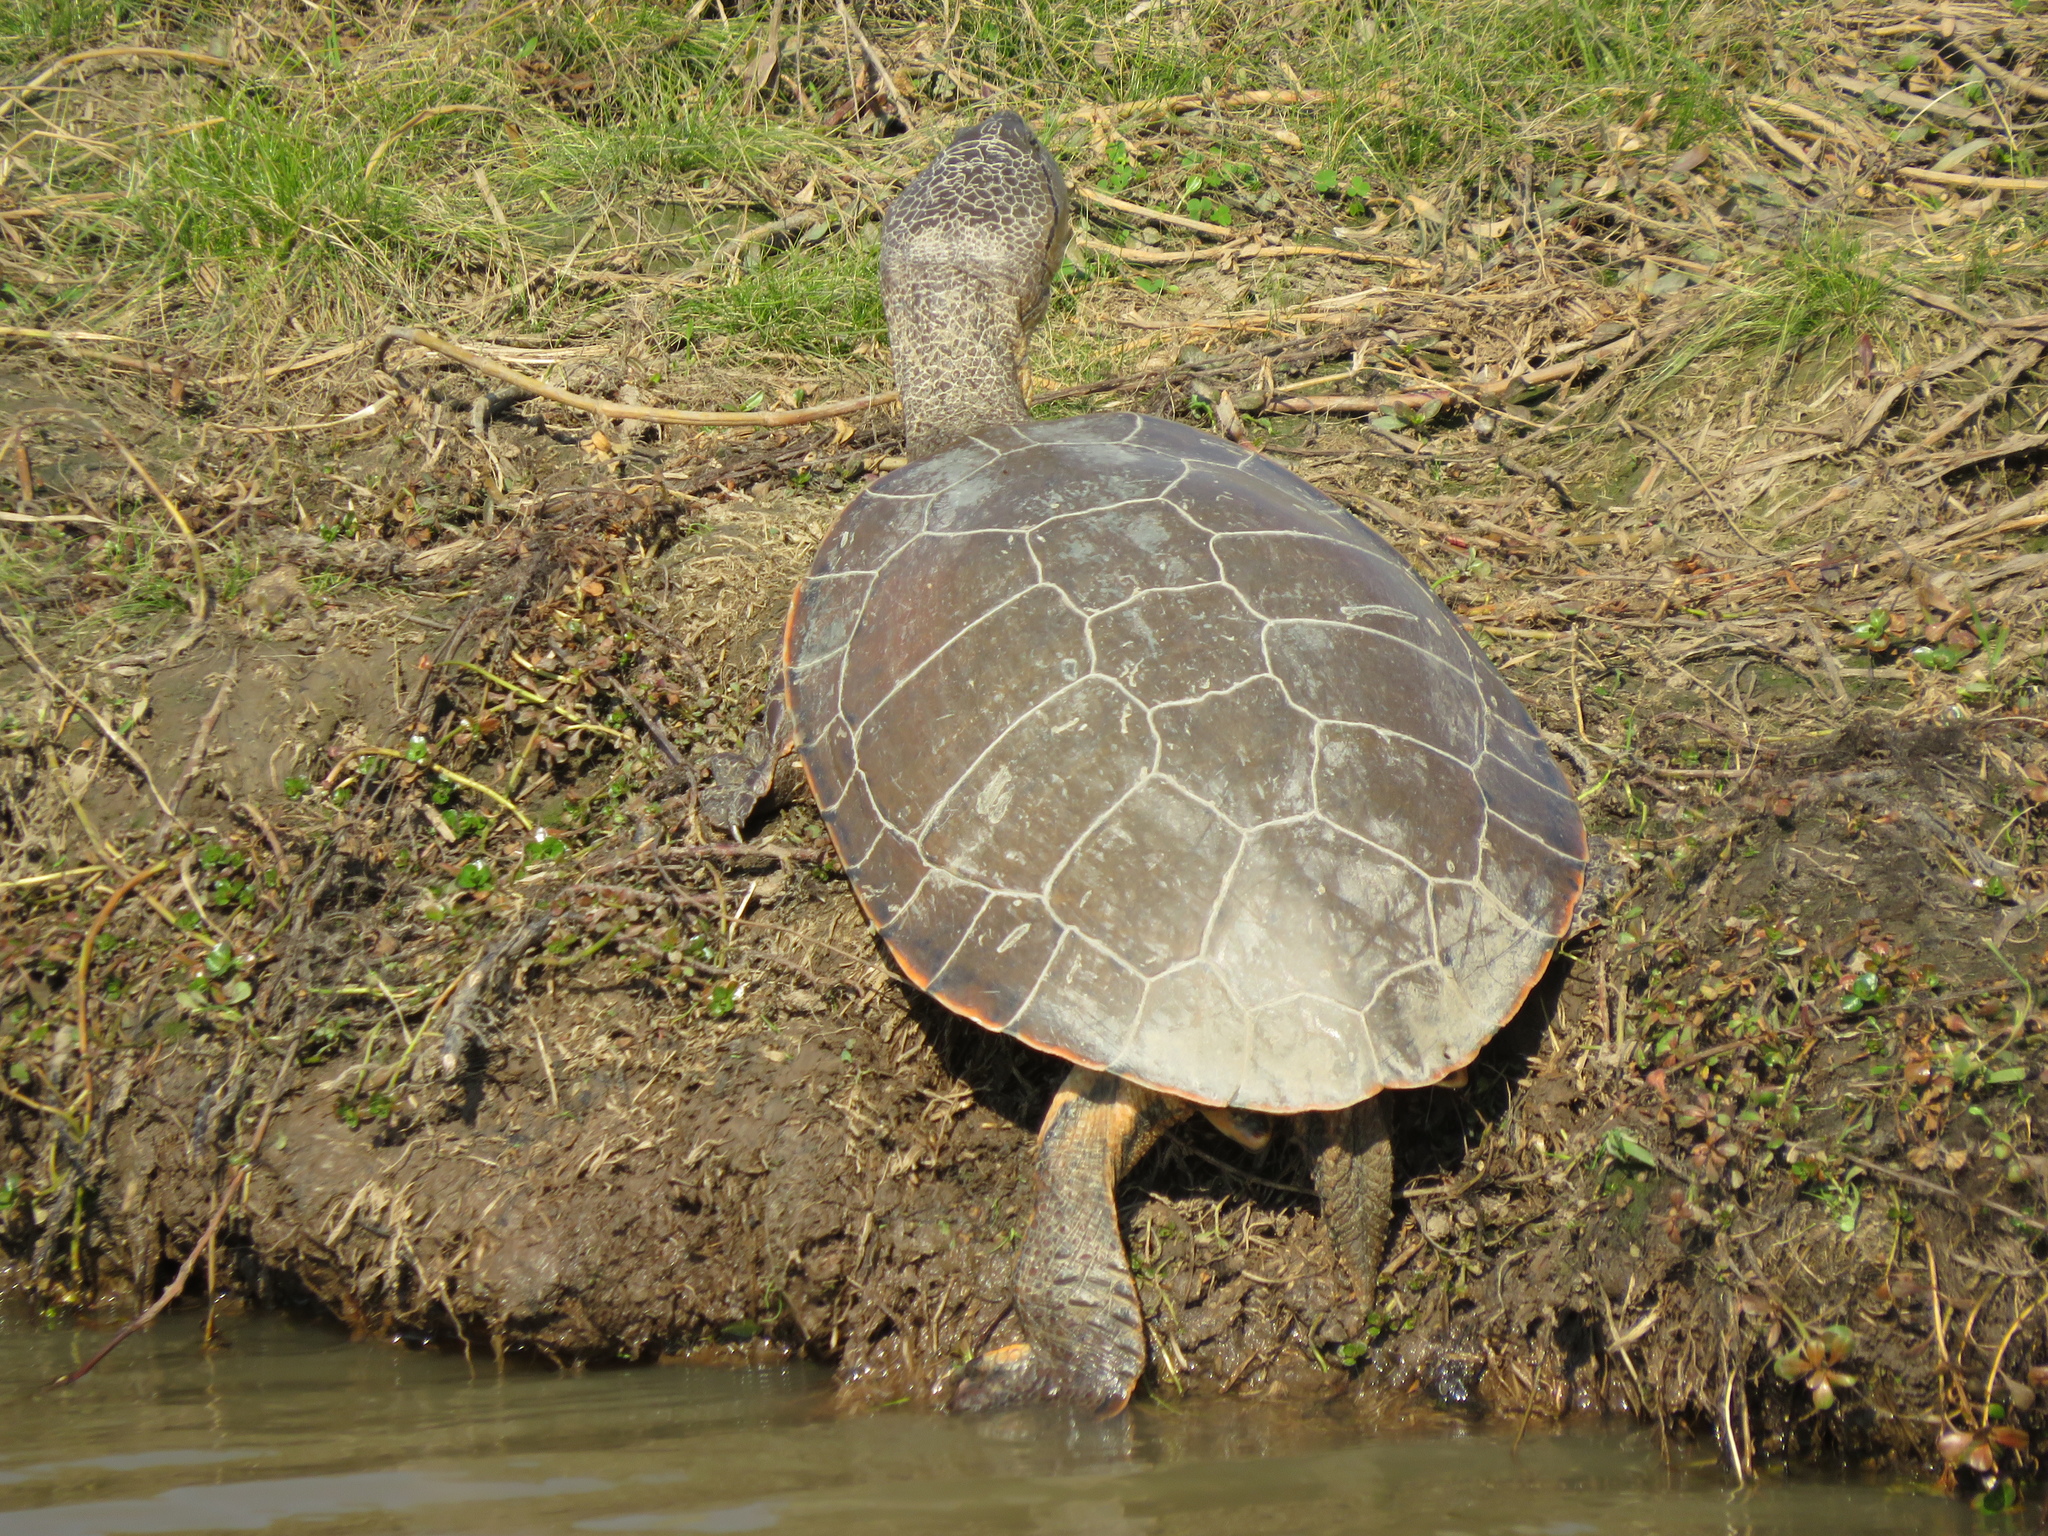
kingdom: Animalia
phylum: Chordata
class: Testudines
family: Chelidae
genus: Phrynops
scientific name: Phrynops hilarii
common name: Side-necked turtle of saint hillaire
